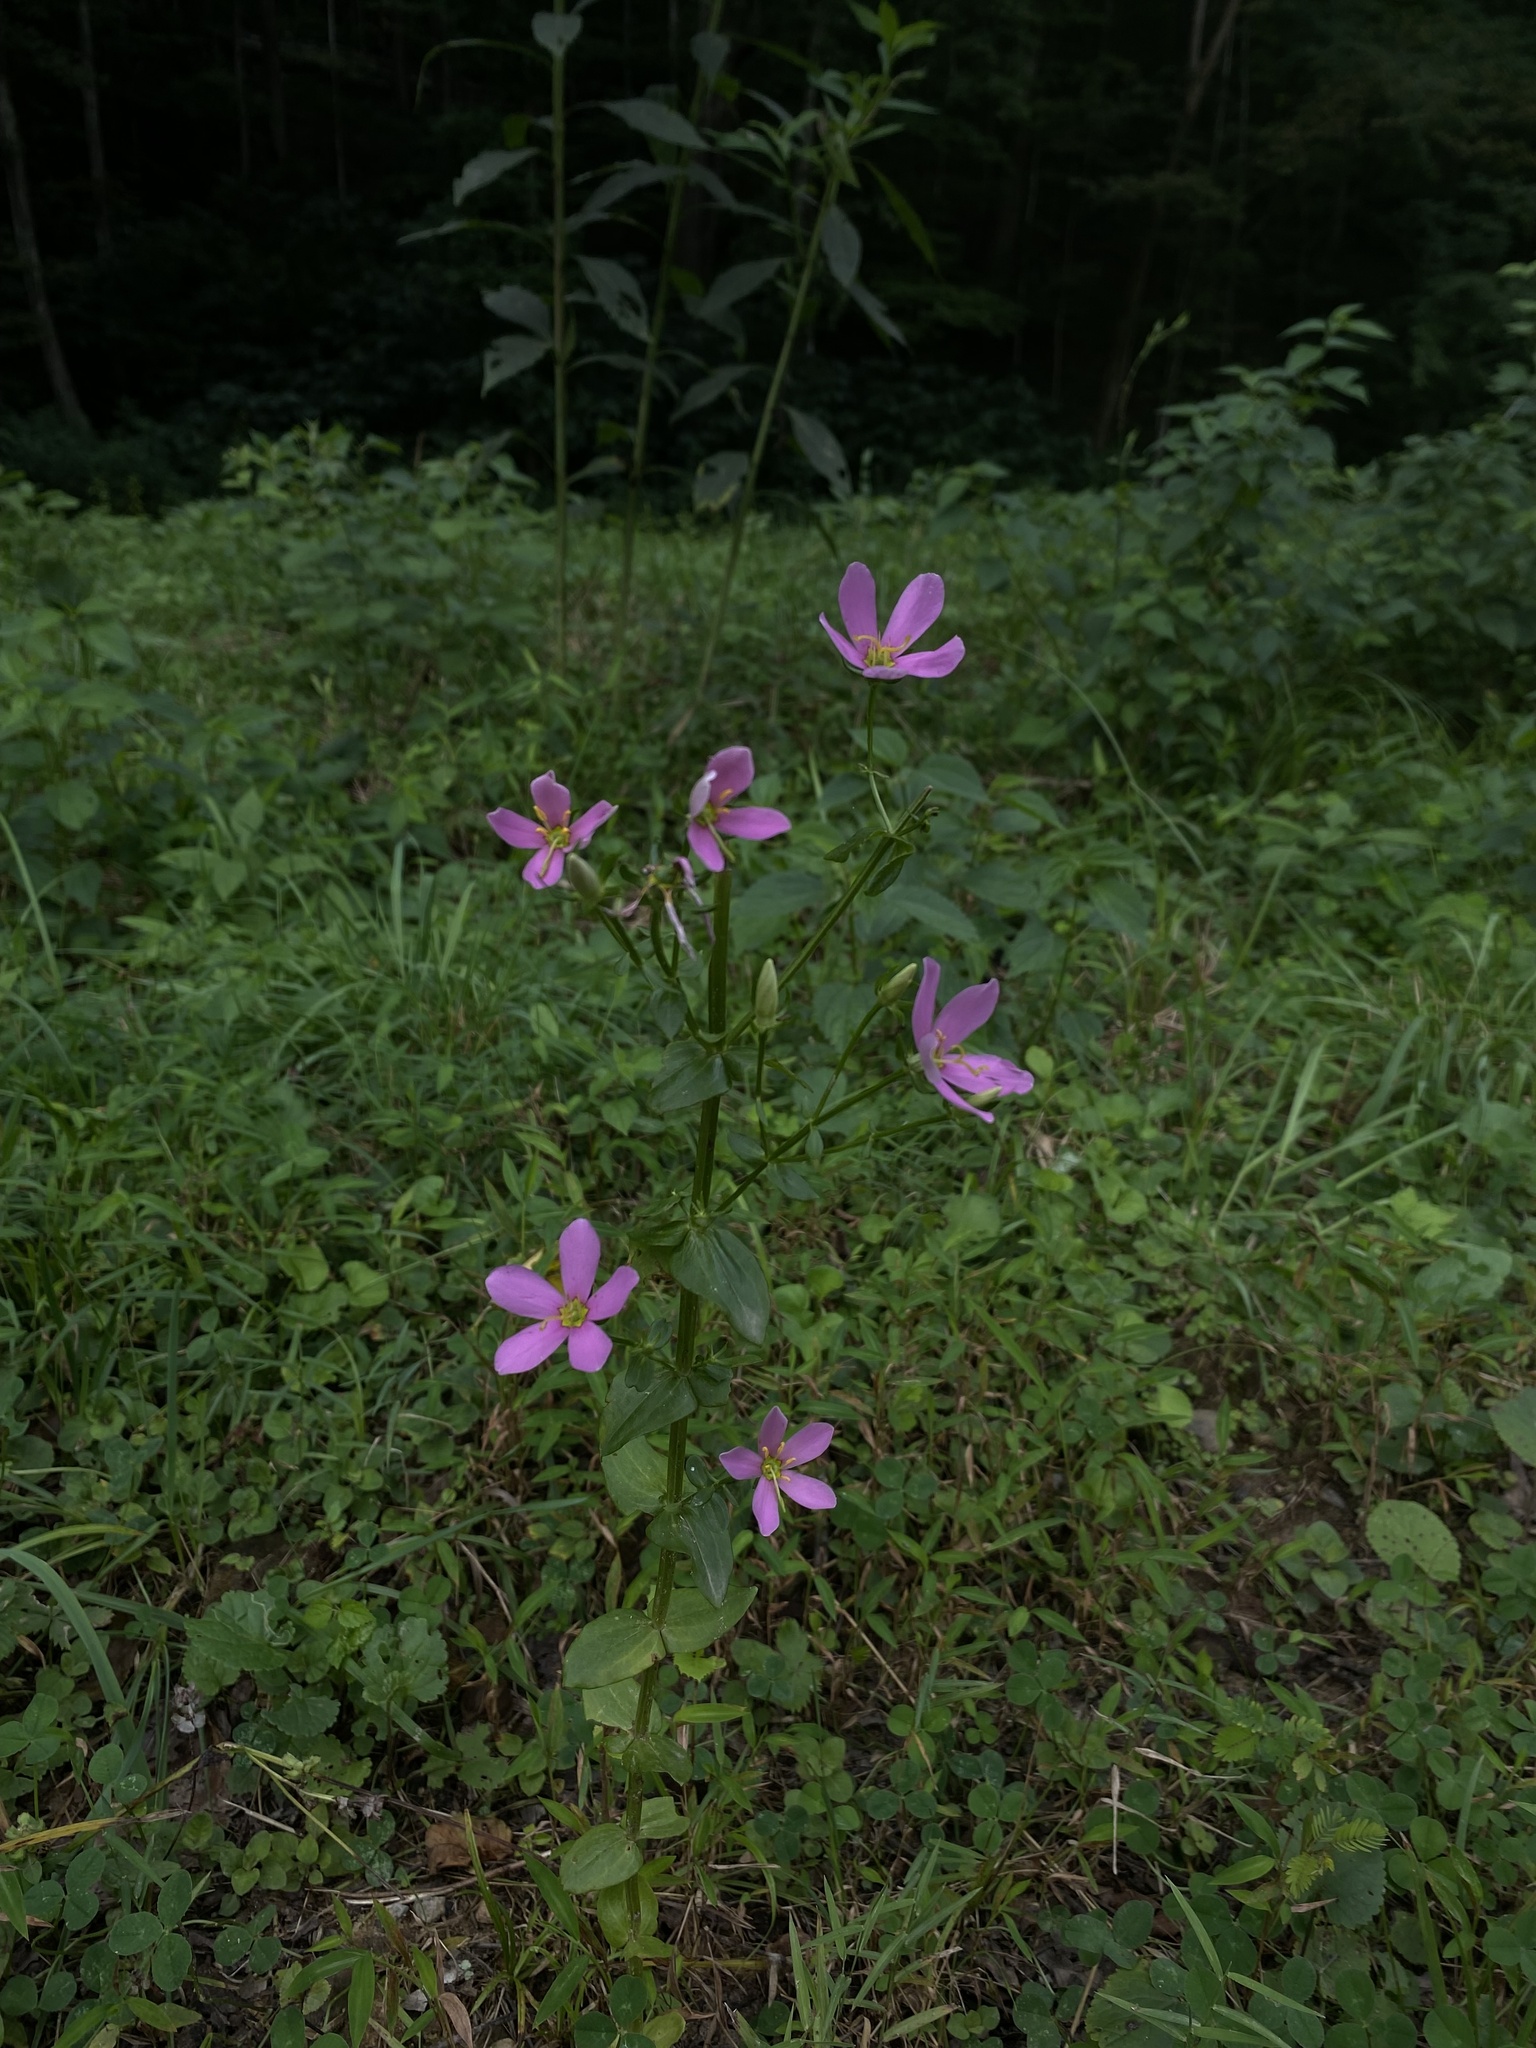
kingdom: Plantae
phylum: Tracheophyta
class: Magnoliopsida
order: Gentianales
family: Gentianaceae
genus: Sabatia
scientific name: Sabatia angularis
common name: Rose-pink
